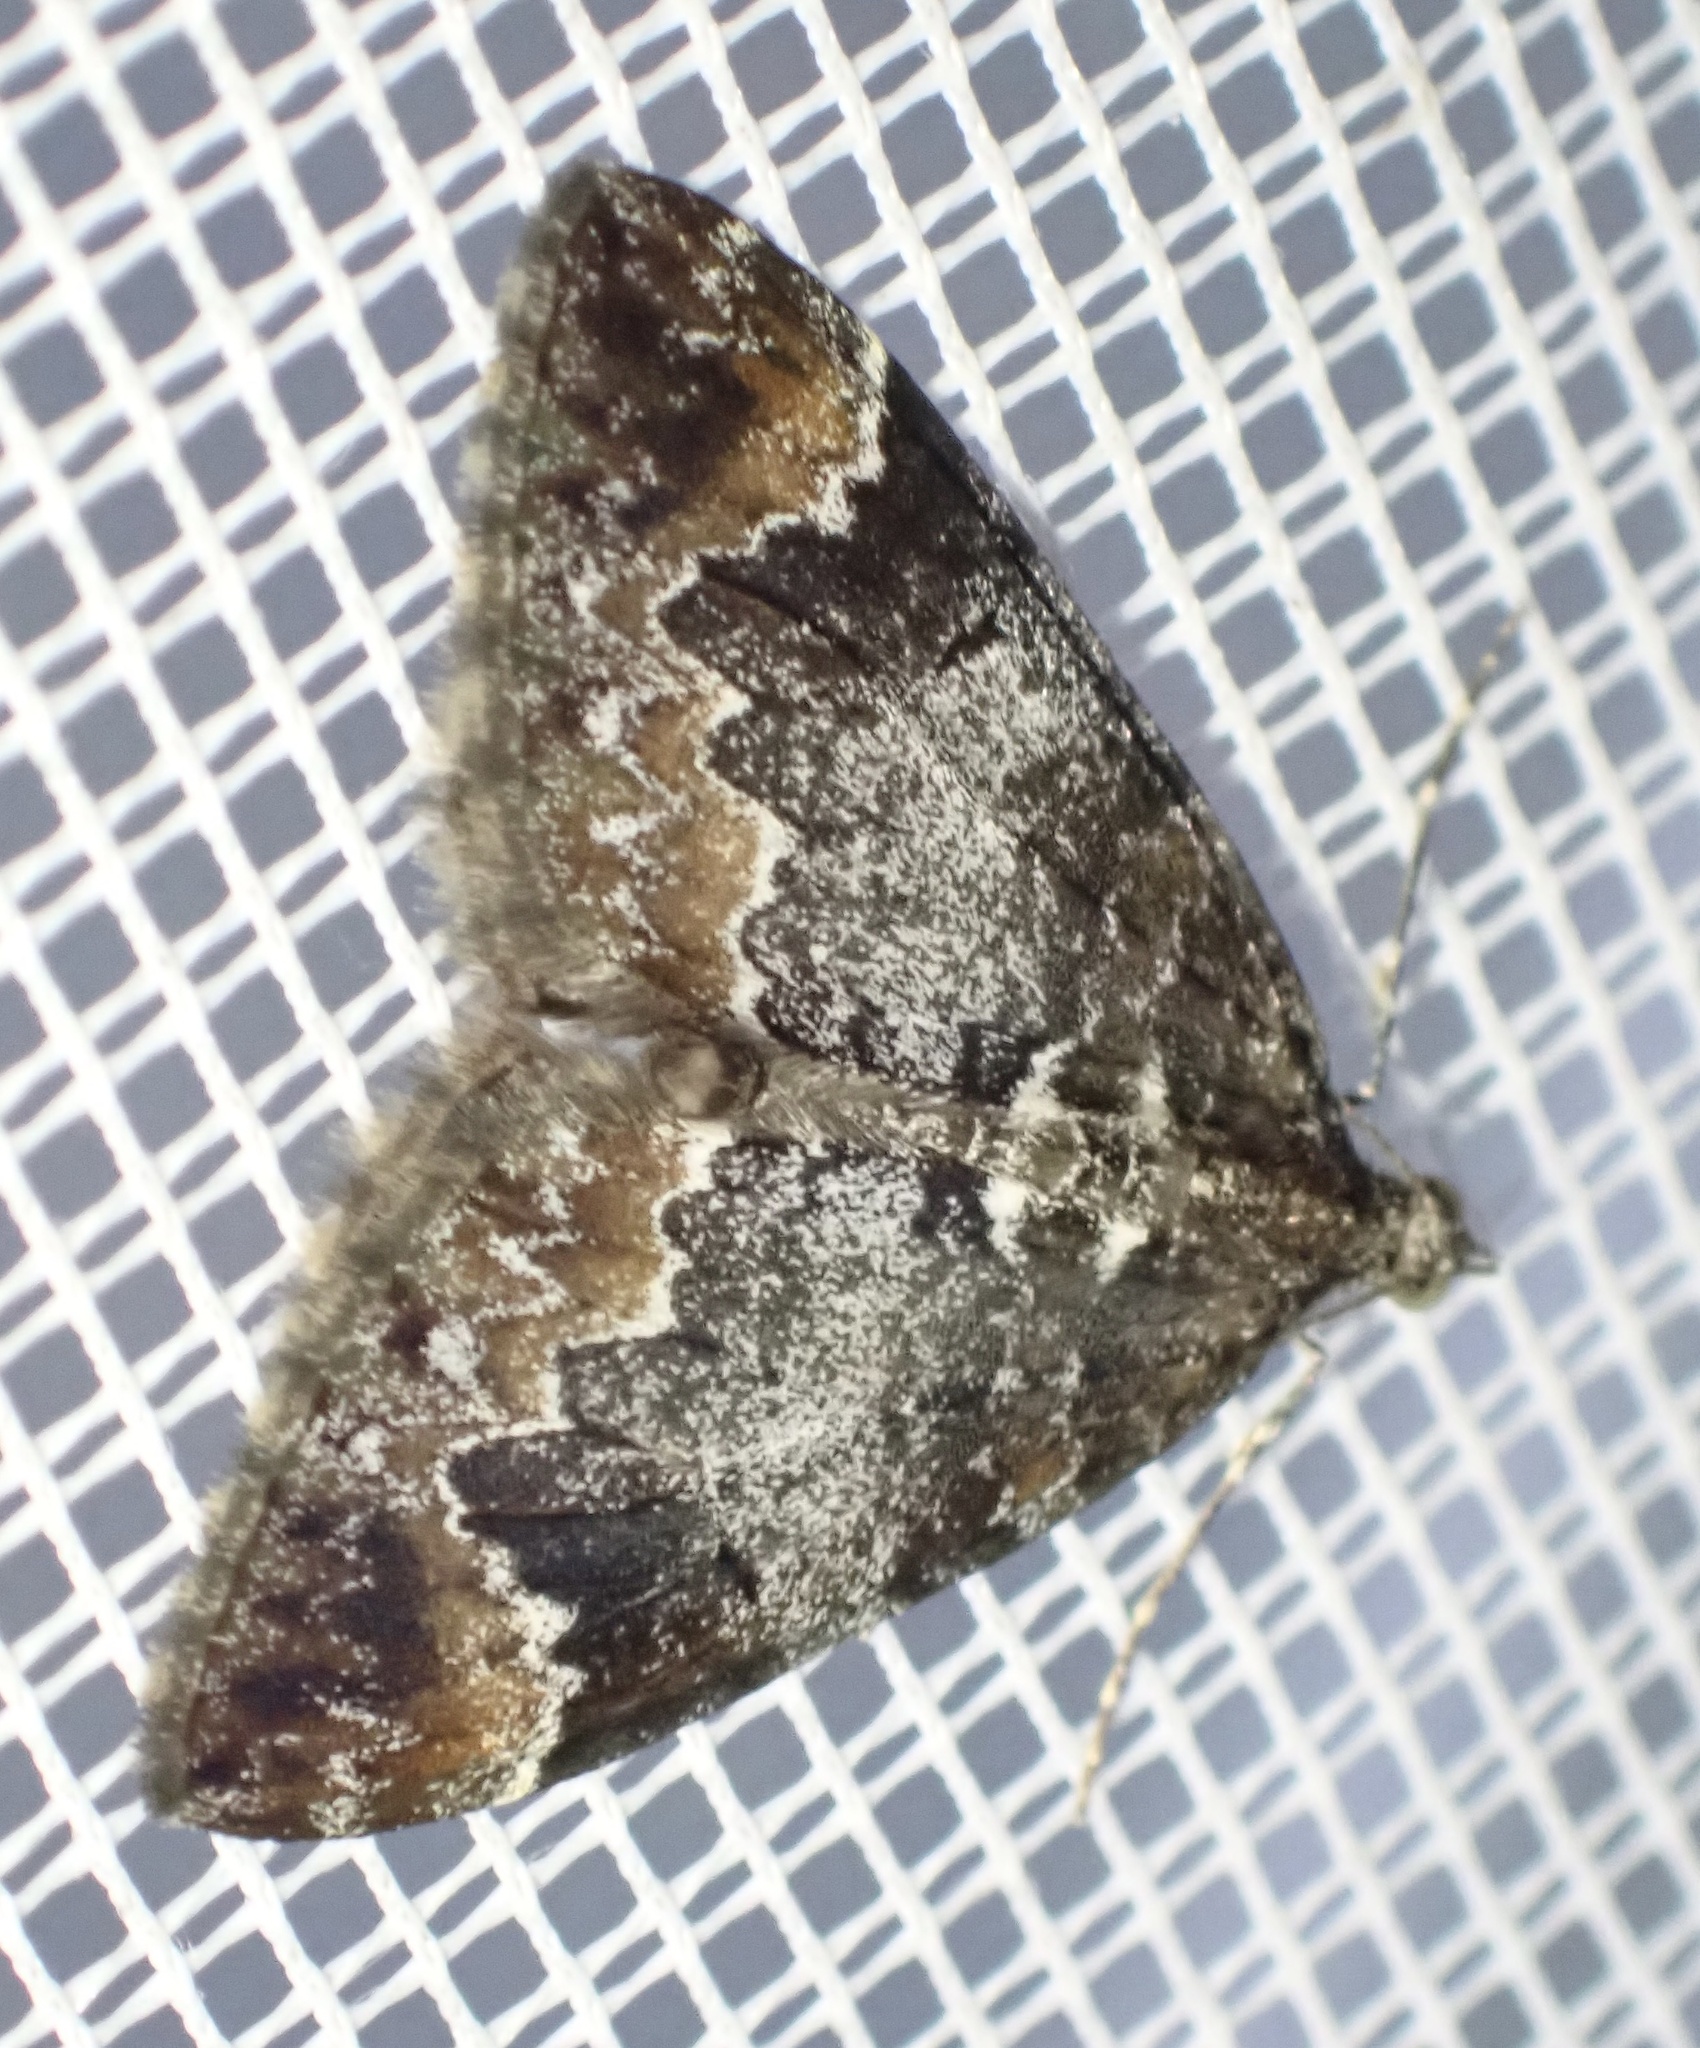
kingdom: Animalia
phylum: Arthropoda
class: Insecta
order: Lepidoptera
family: Geometridae
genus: Dysstroma
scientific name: Dysstroma truncata
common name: Common marbled carpet
